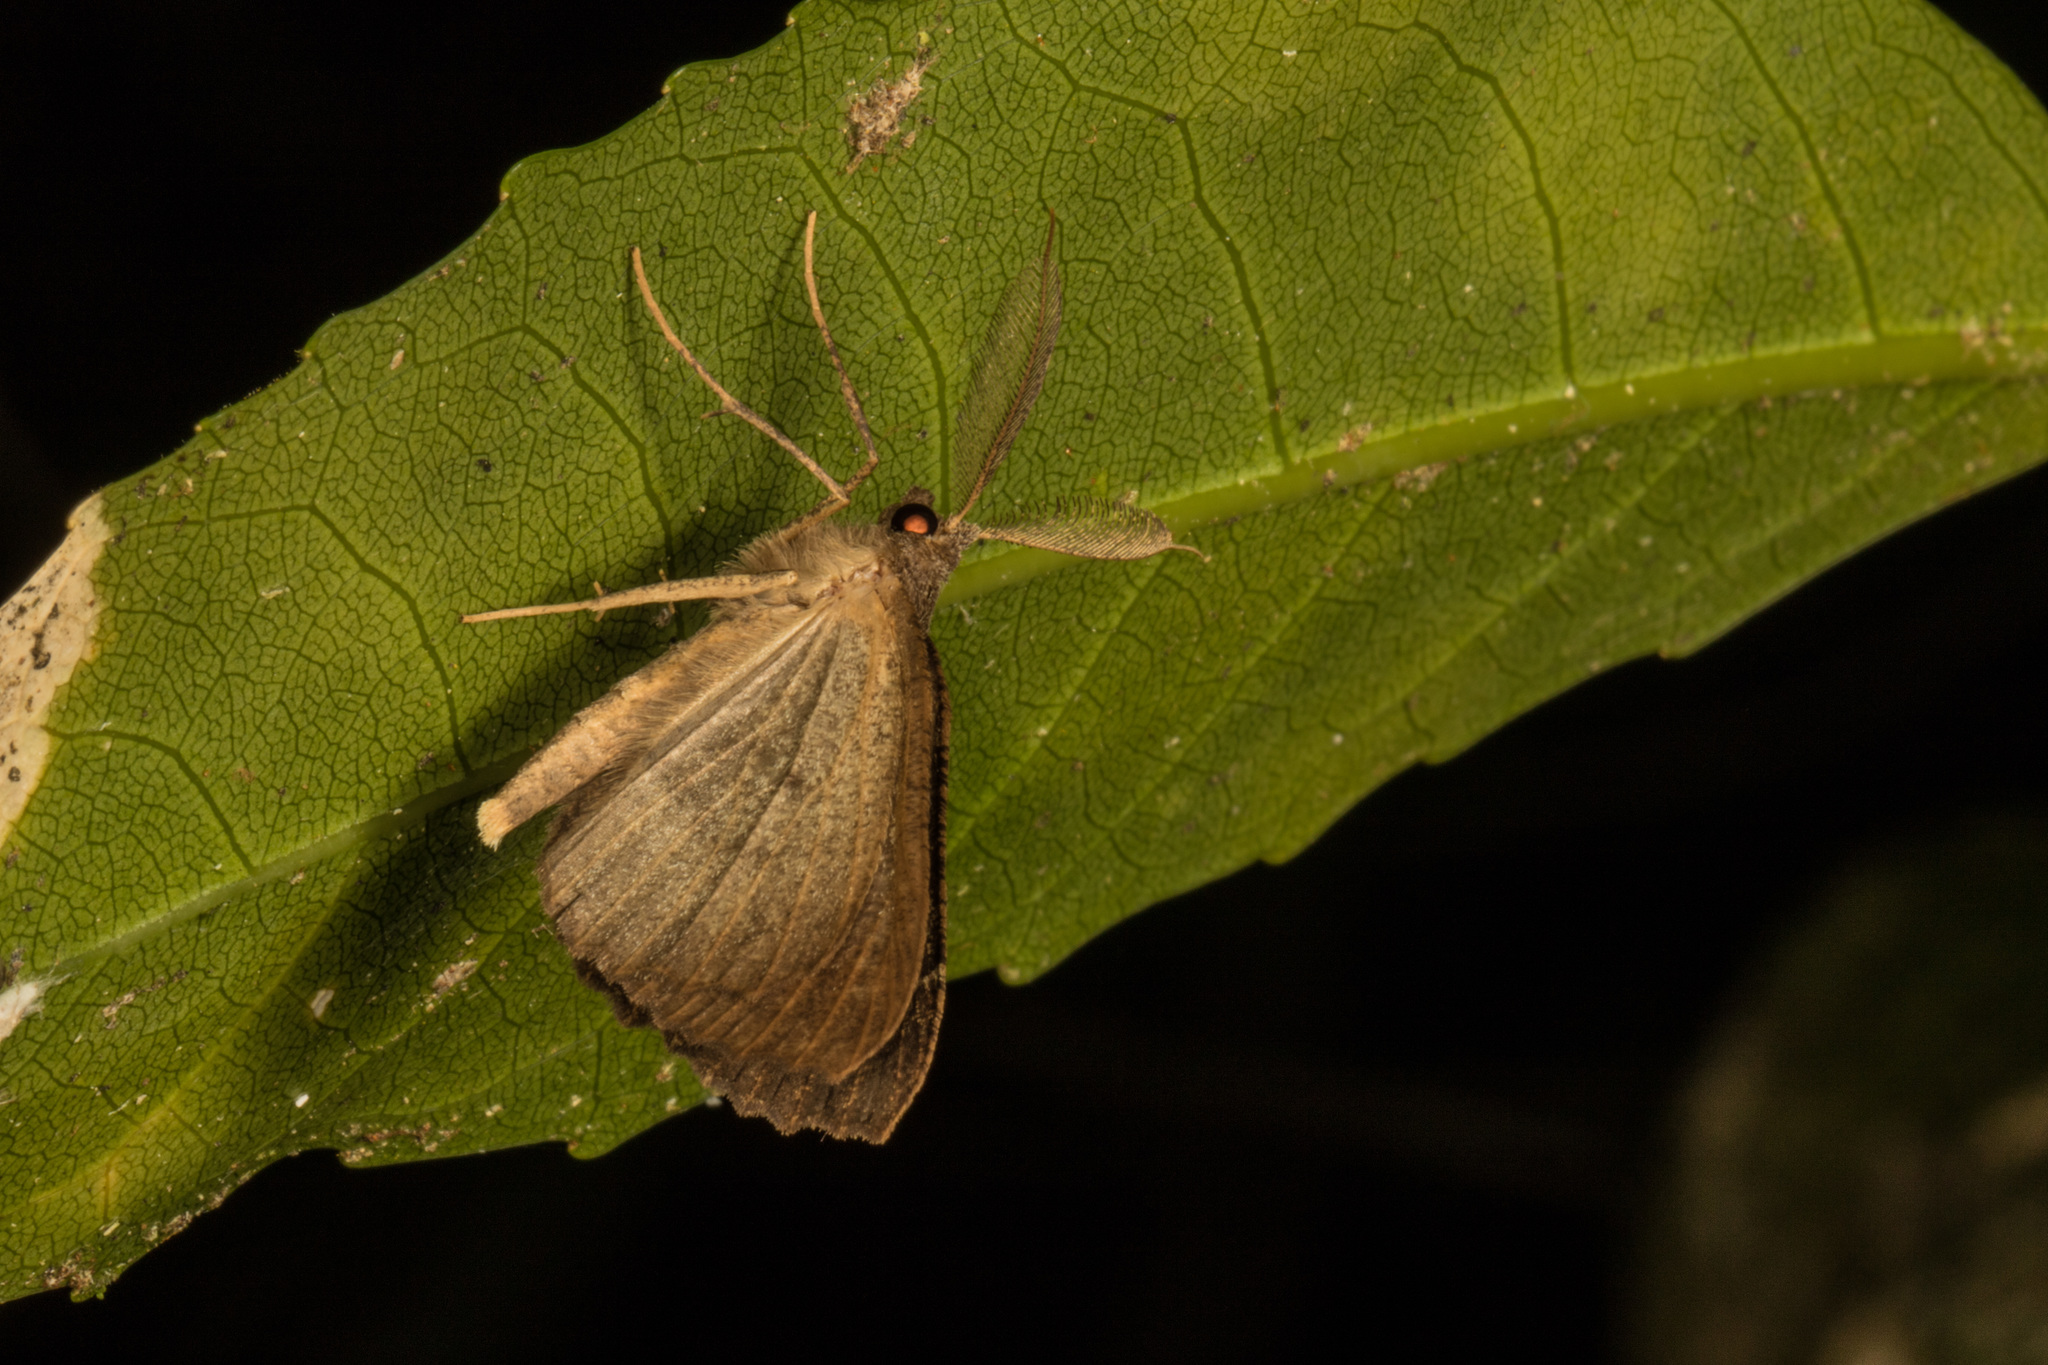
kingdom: Animalia
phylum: Arthropoda
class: Insecta
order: Lepidoptera
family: Geometridae
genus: Cleora
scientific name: Cleora scriptaria
